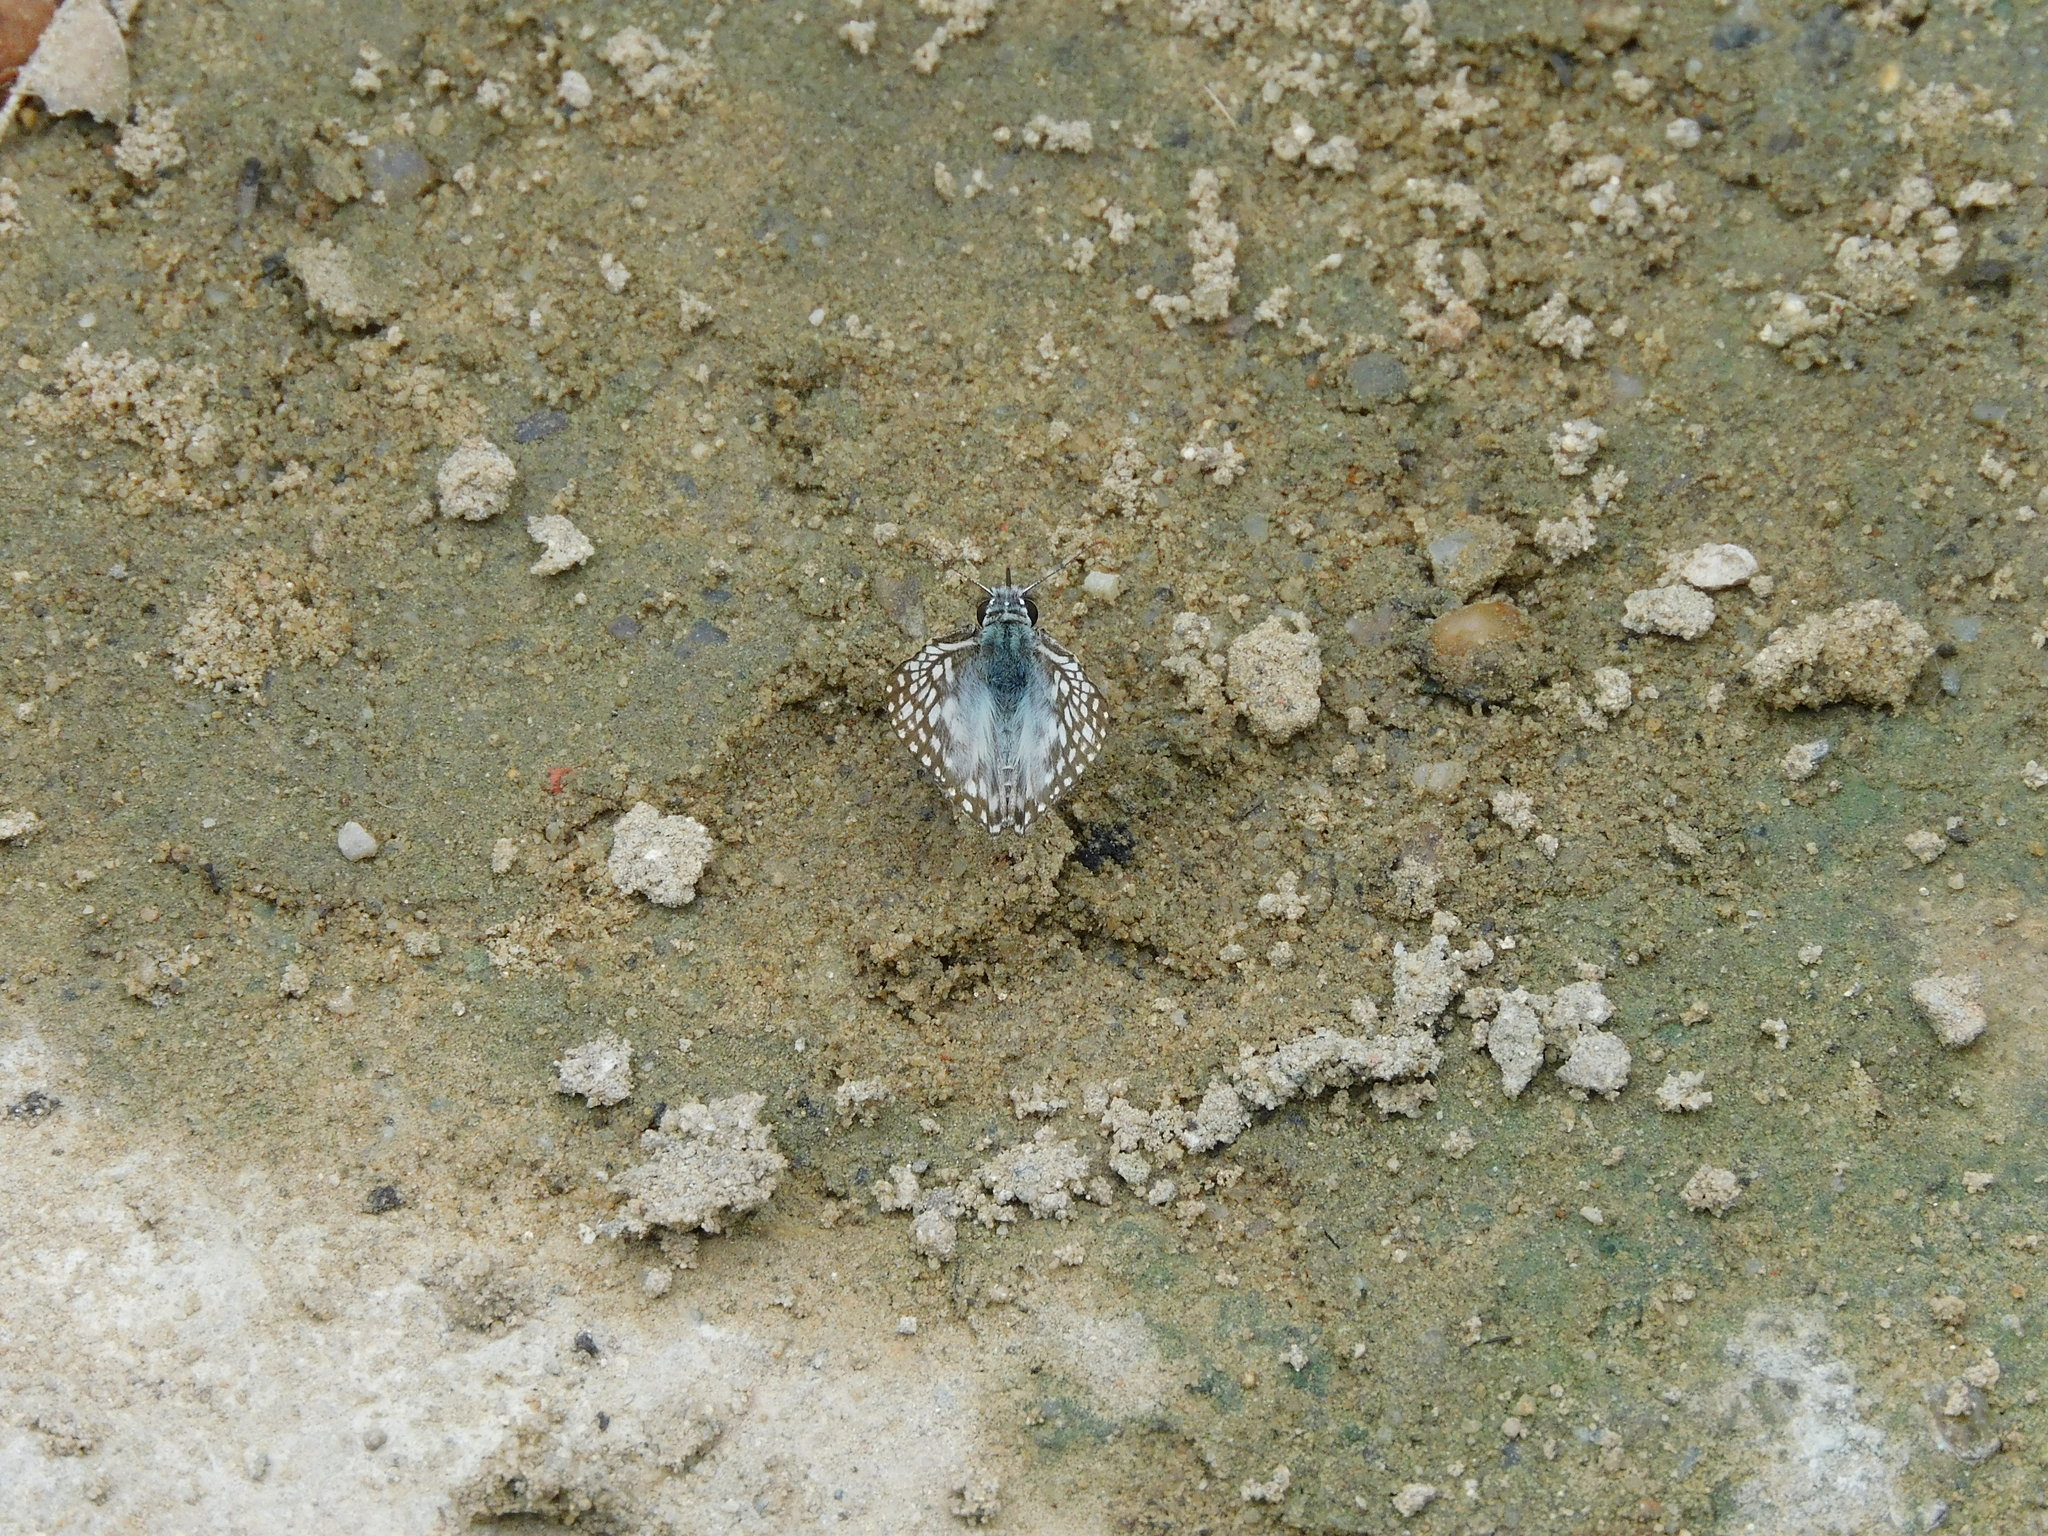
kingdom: Animalia
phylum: Arthropoda
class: Insecta
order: Lepidoptera
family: Hesperiidae
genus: Pyrgus
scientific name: Pyrgus oileus
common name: Tropical checkered-skipper
